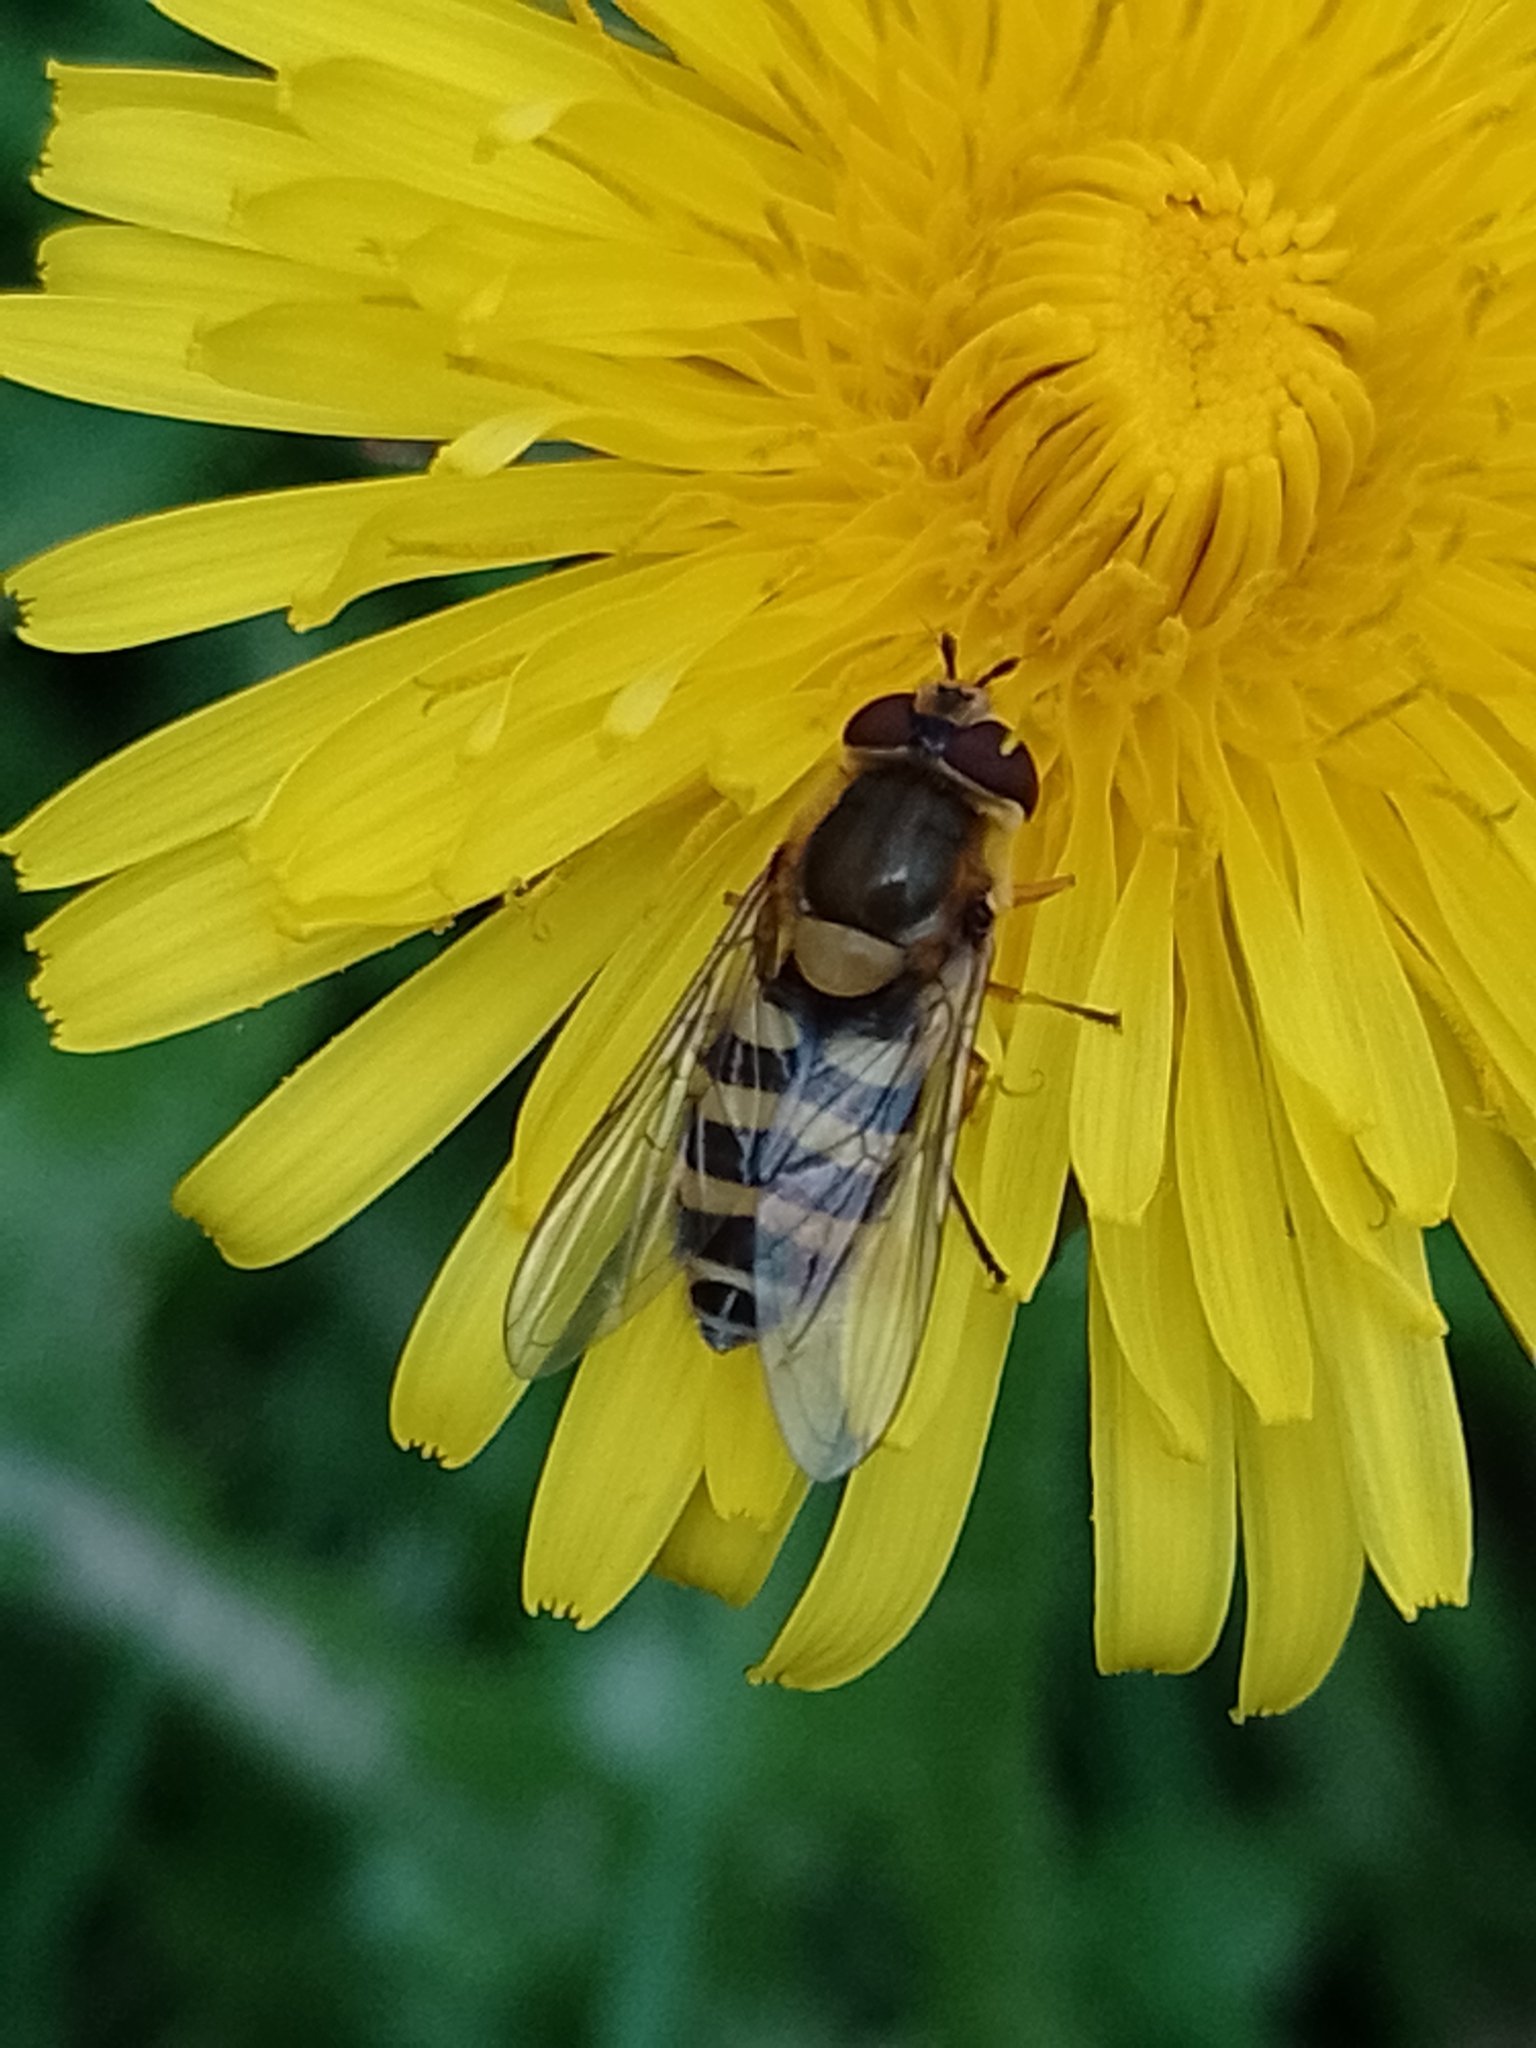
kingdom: Animalia
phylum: Arthropoda
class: Insecta
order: Diptera
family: Syrphidae
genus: Syrphus
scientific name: Syrphus
